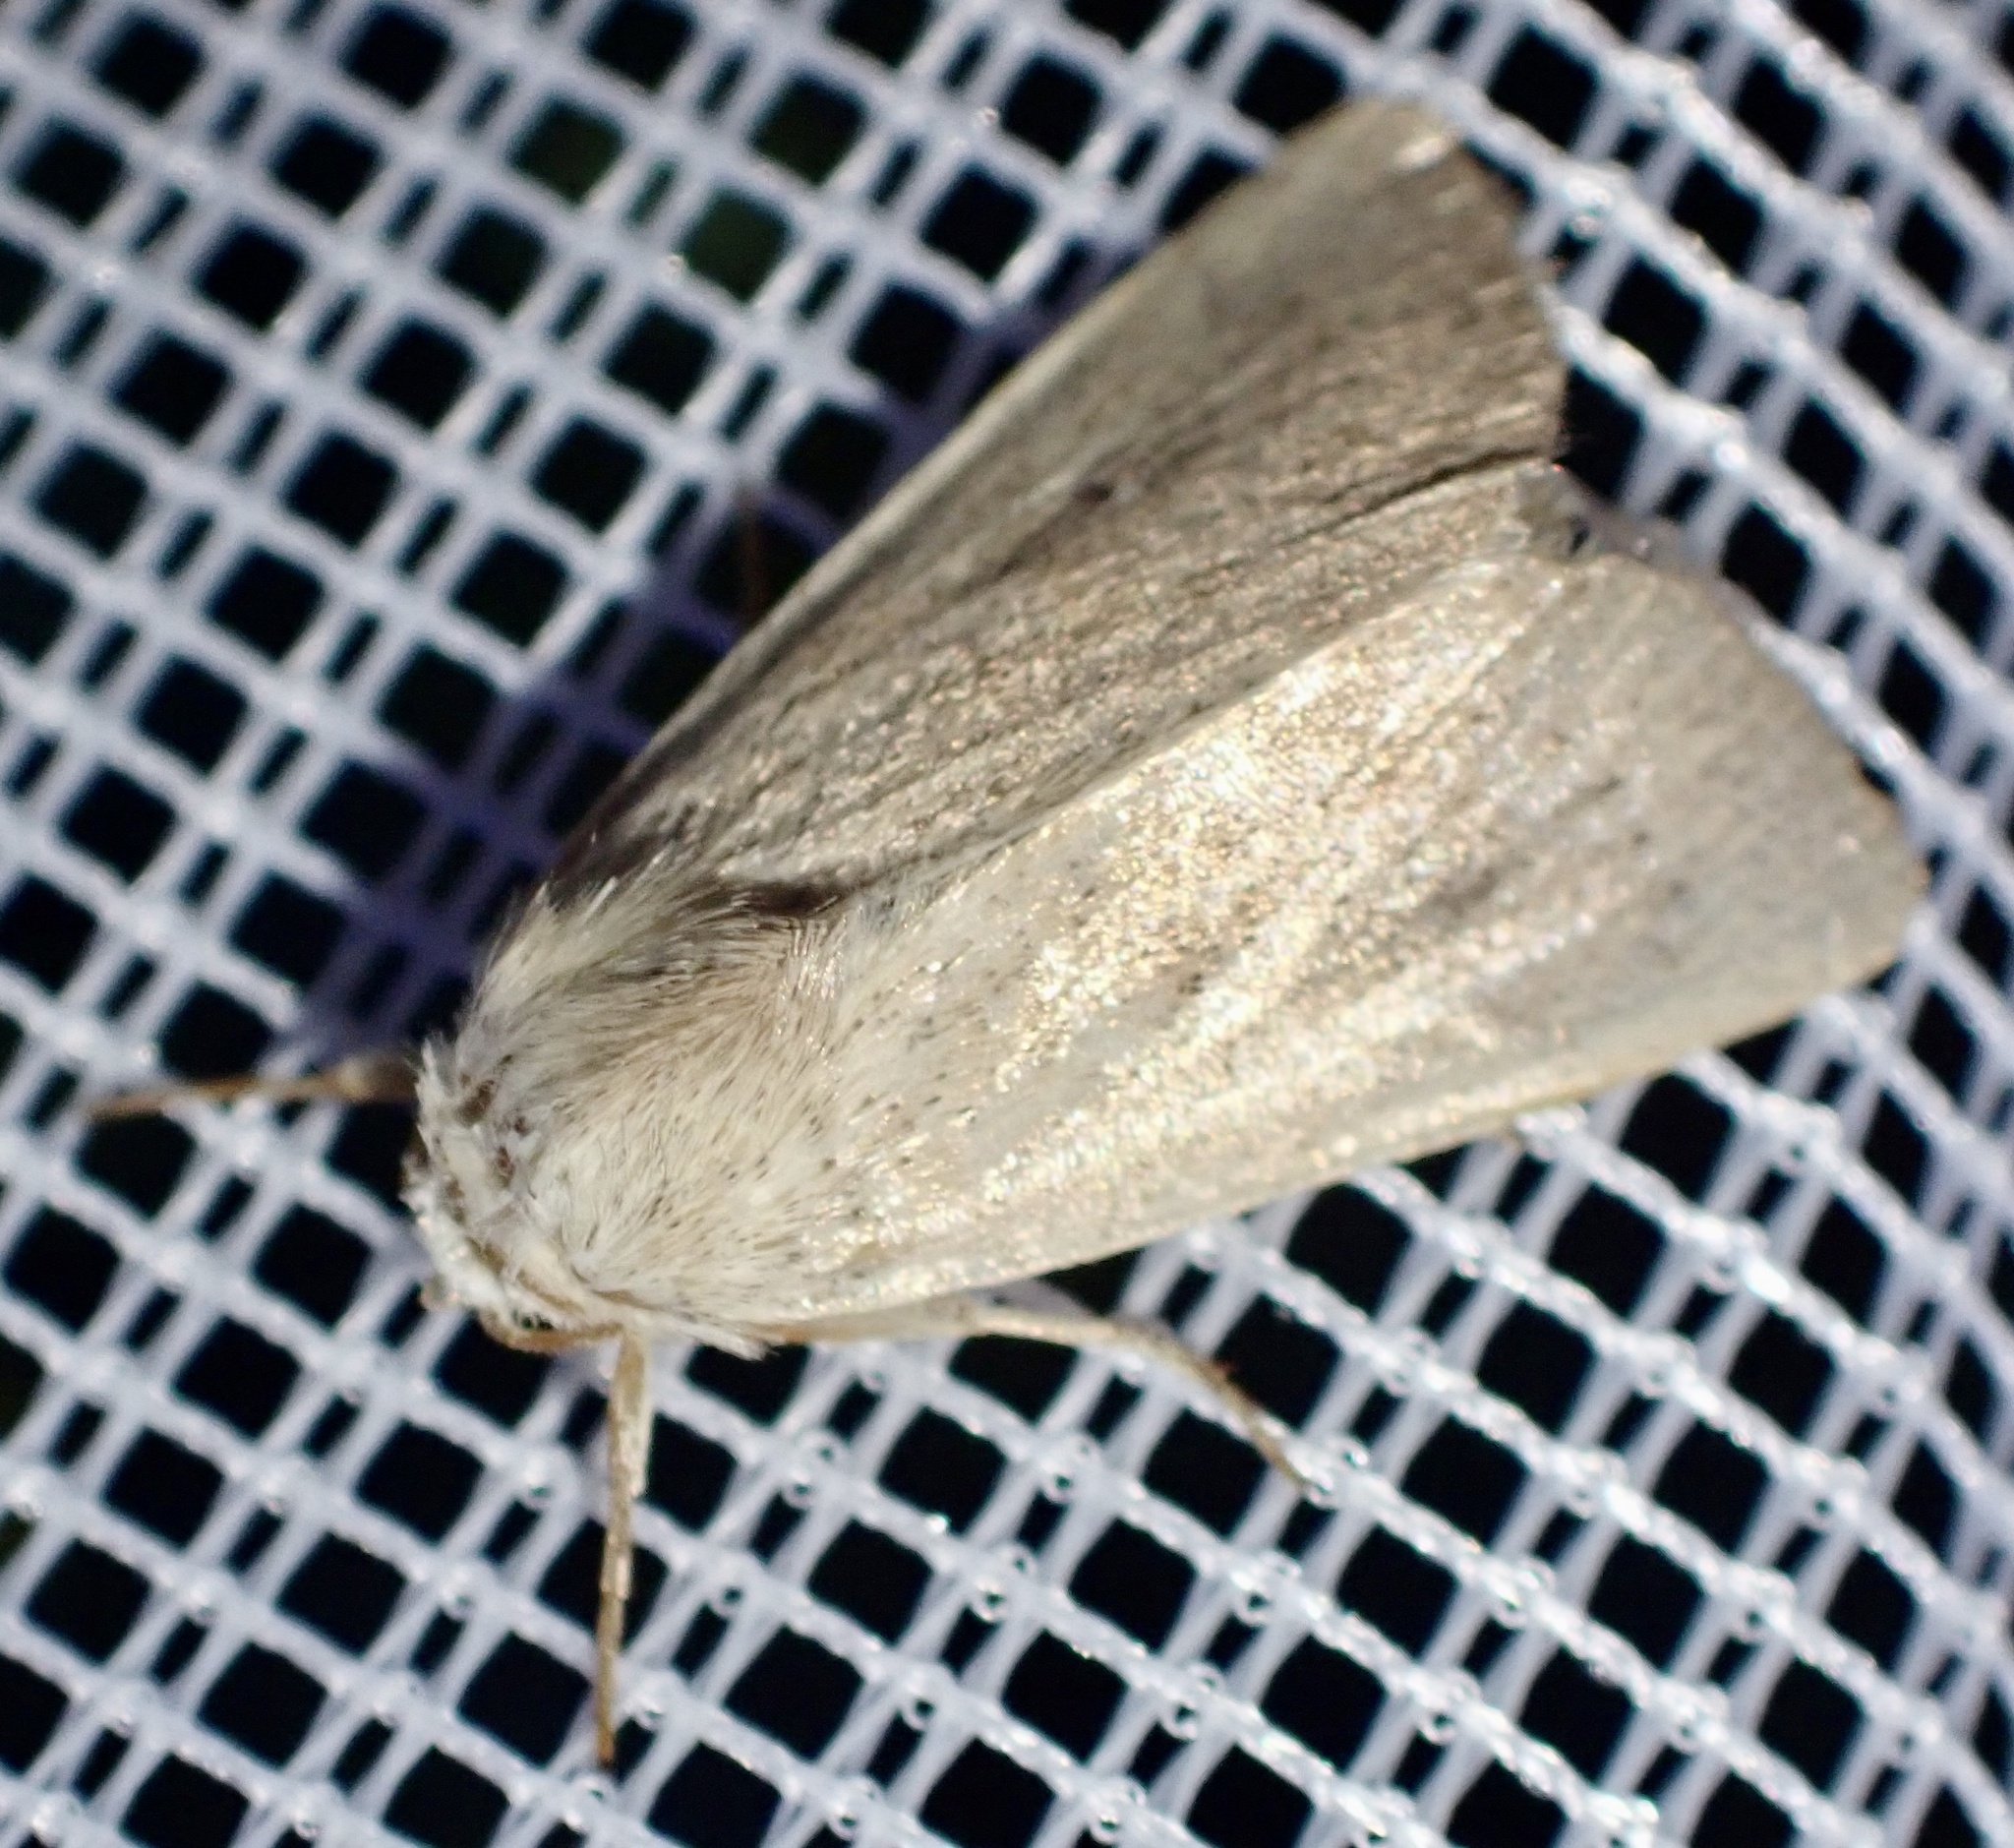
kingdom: Animalia
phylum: Arthropoda
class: Insecta
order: Lepidoptera
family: Noctuidae
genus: Mythimna
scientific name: Mythimna sicula
